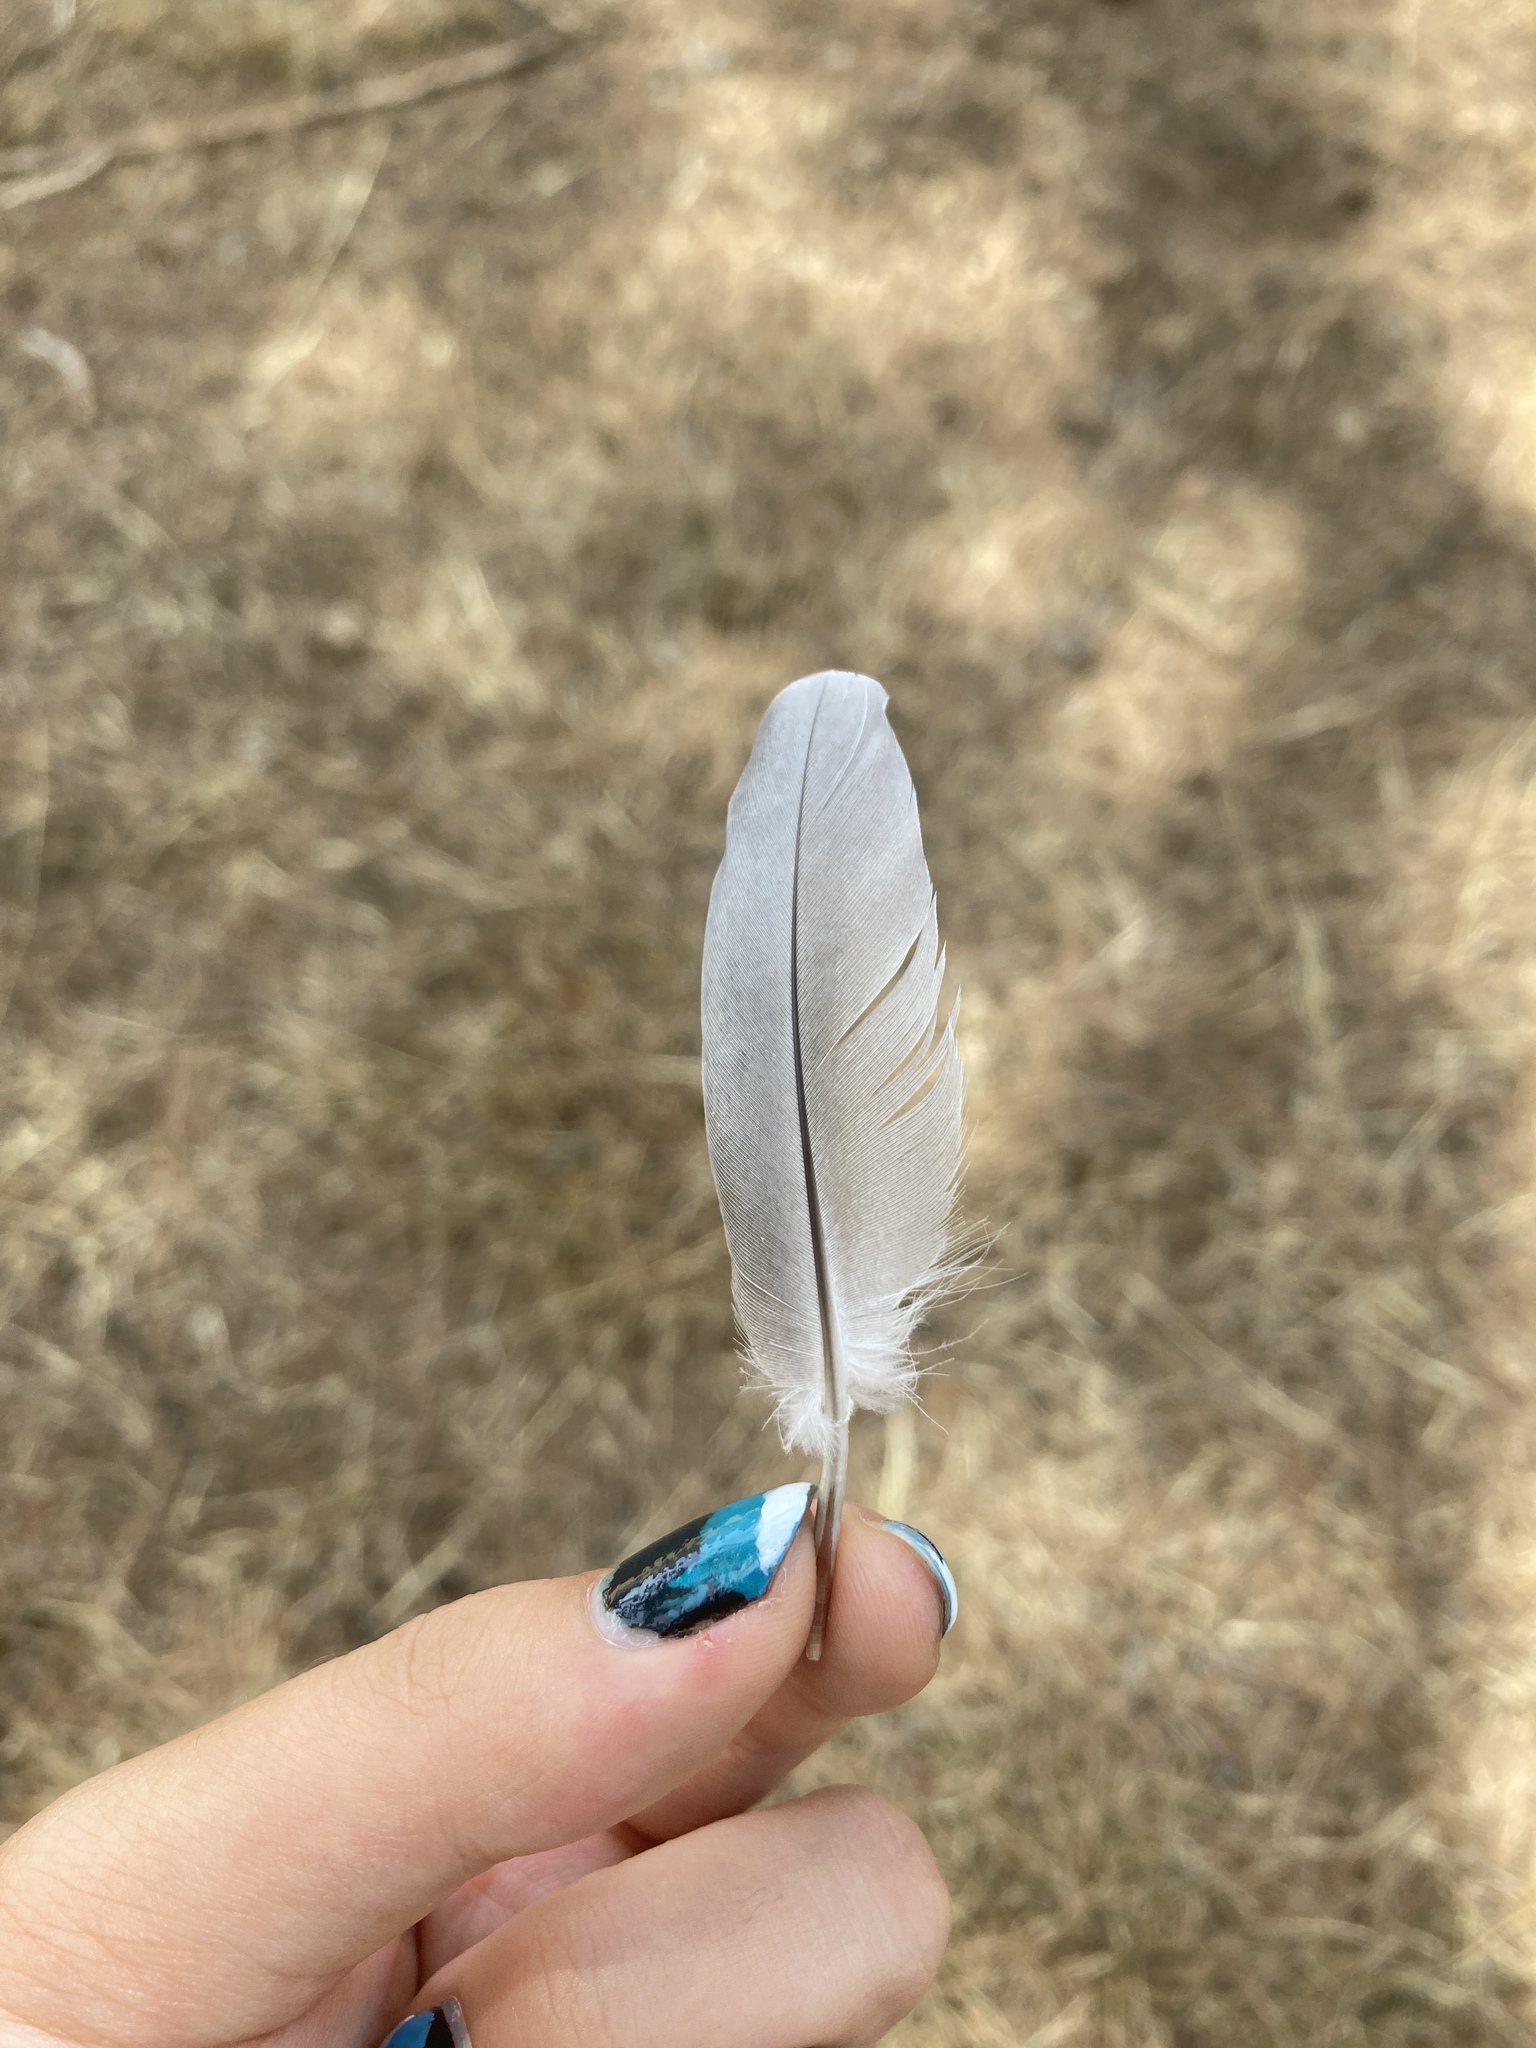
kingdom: Animalia
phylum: Chordata
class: Aves
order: Columbiformes
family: Columbidae
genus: Columba
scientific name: Columba livia
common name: Rock pigeon
